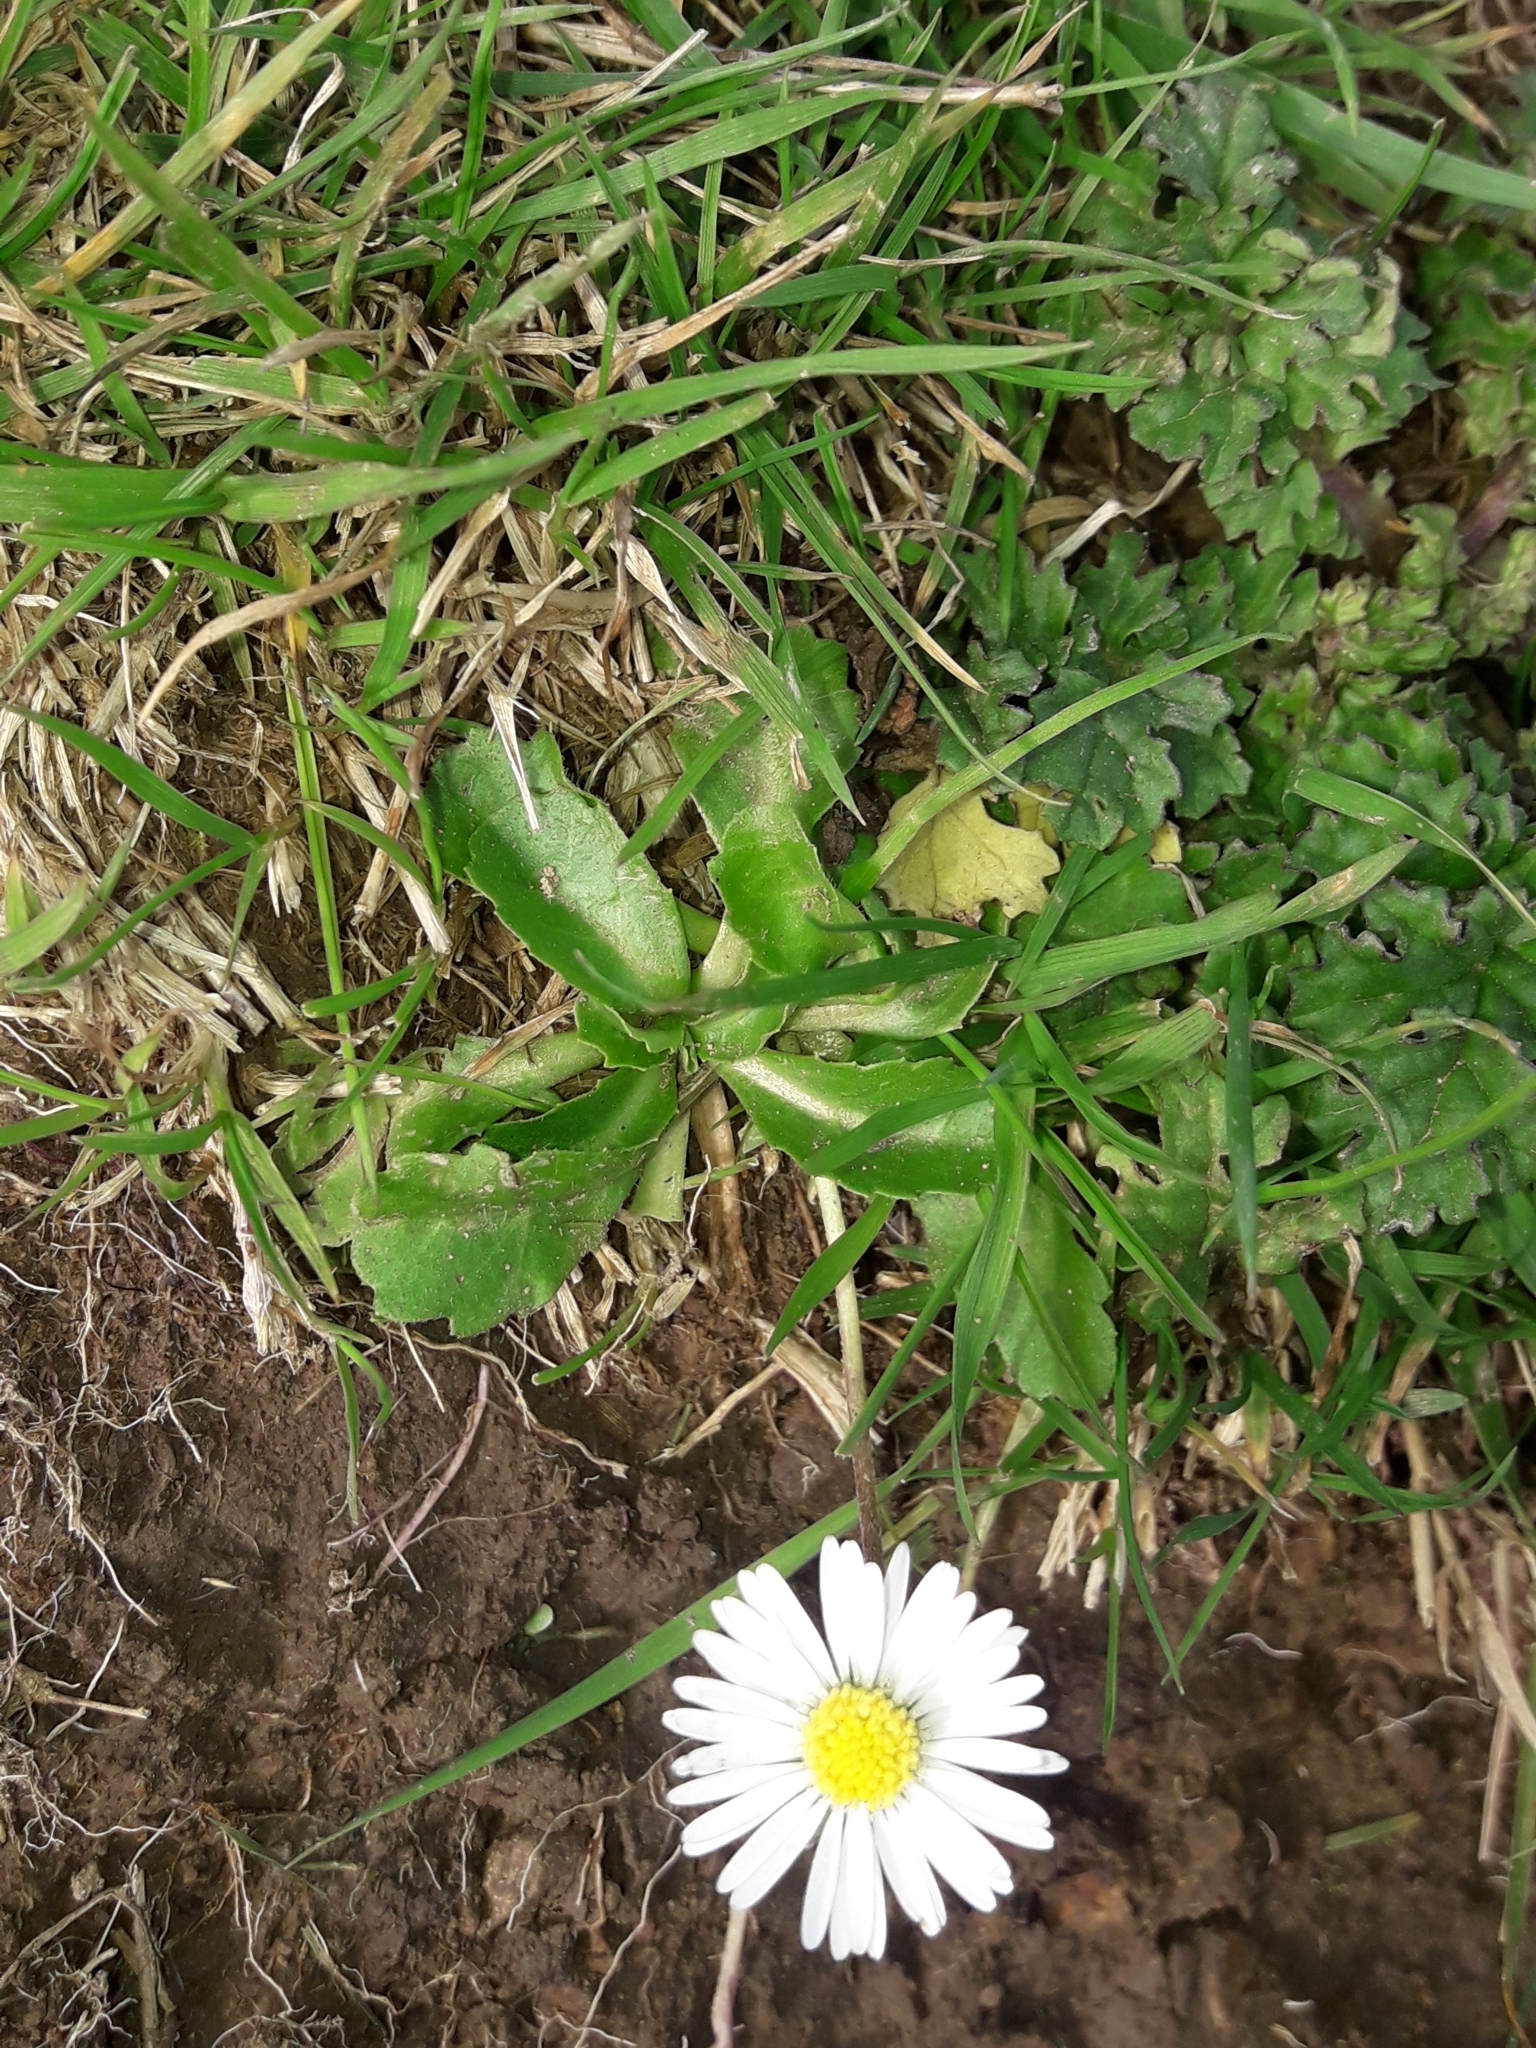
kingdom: Plantae
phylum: Tracheophyta
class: Magnoliopsida
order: Asterales
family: Asteraceae
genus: Bellis
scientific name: Bellis perennis
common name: Lawndaisy
